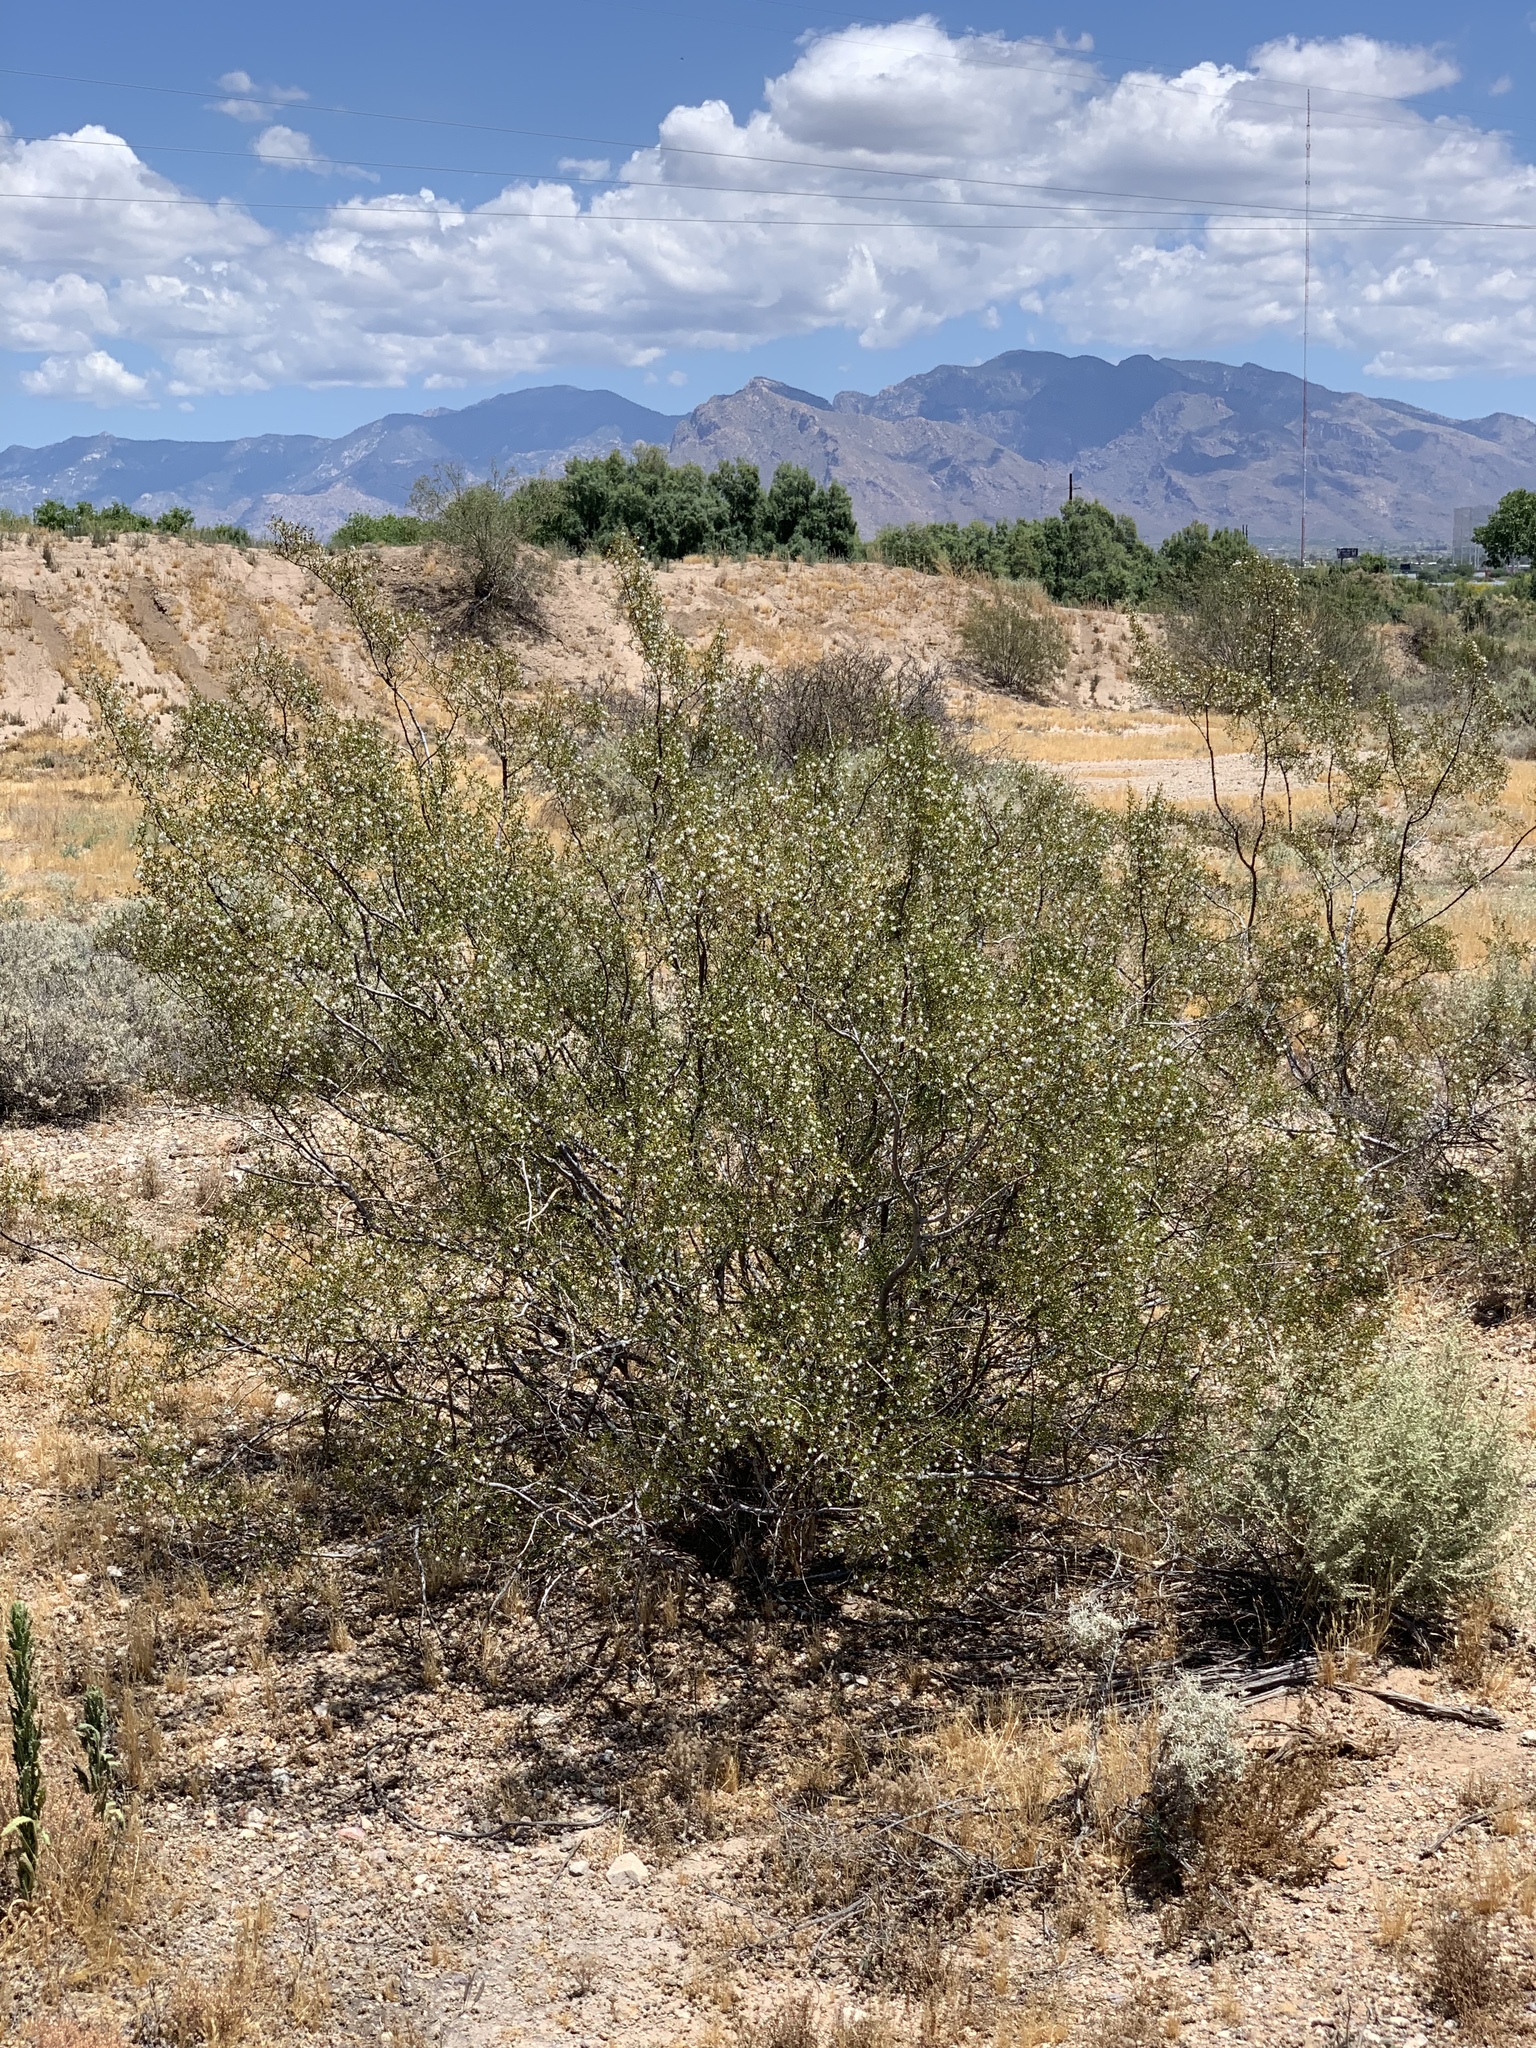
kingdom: Plantae
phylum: Tracheophyta
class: Magnoliopsida
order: Zygophyllales
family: Zygophyllaceae
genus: Larrea
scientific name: Larrea tridentata
